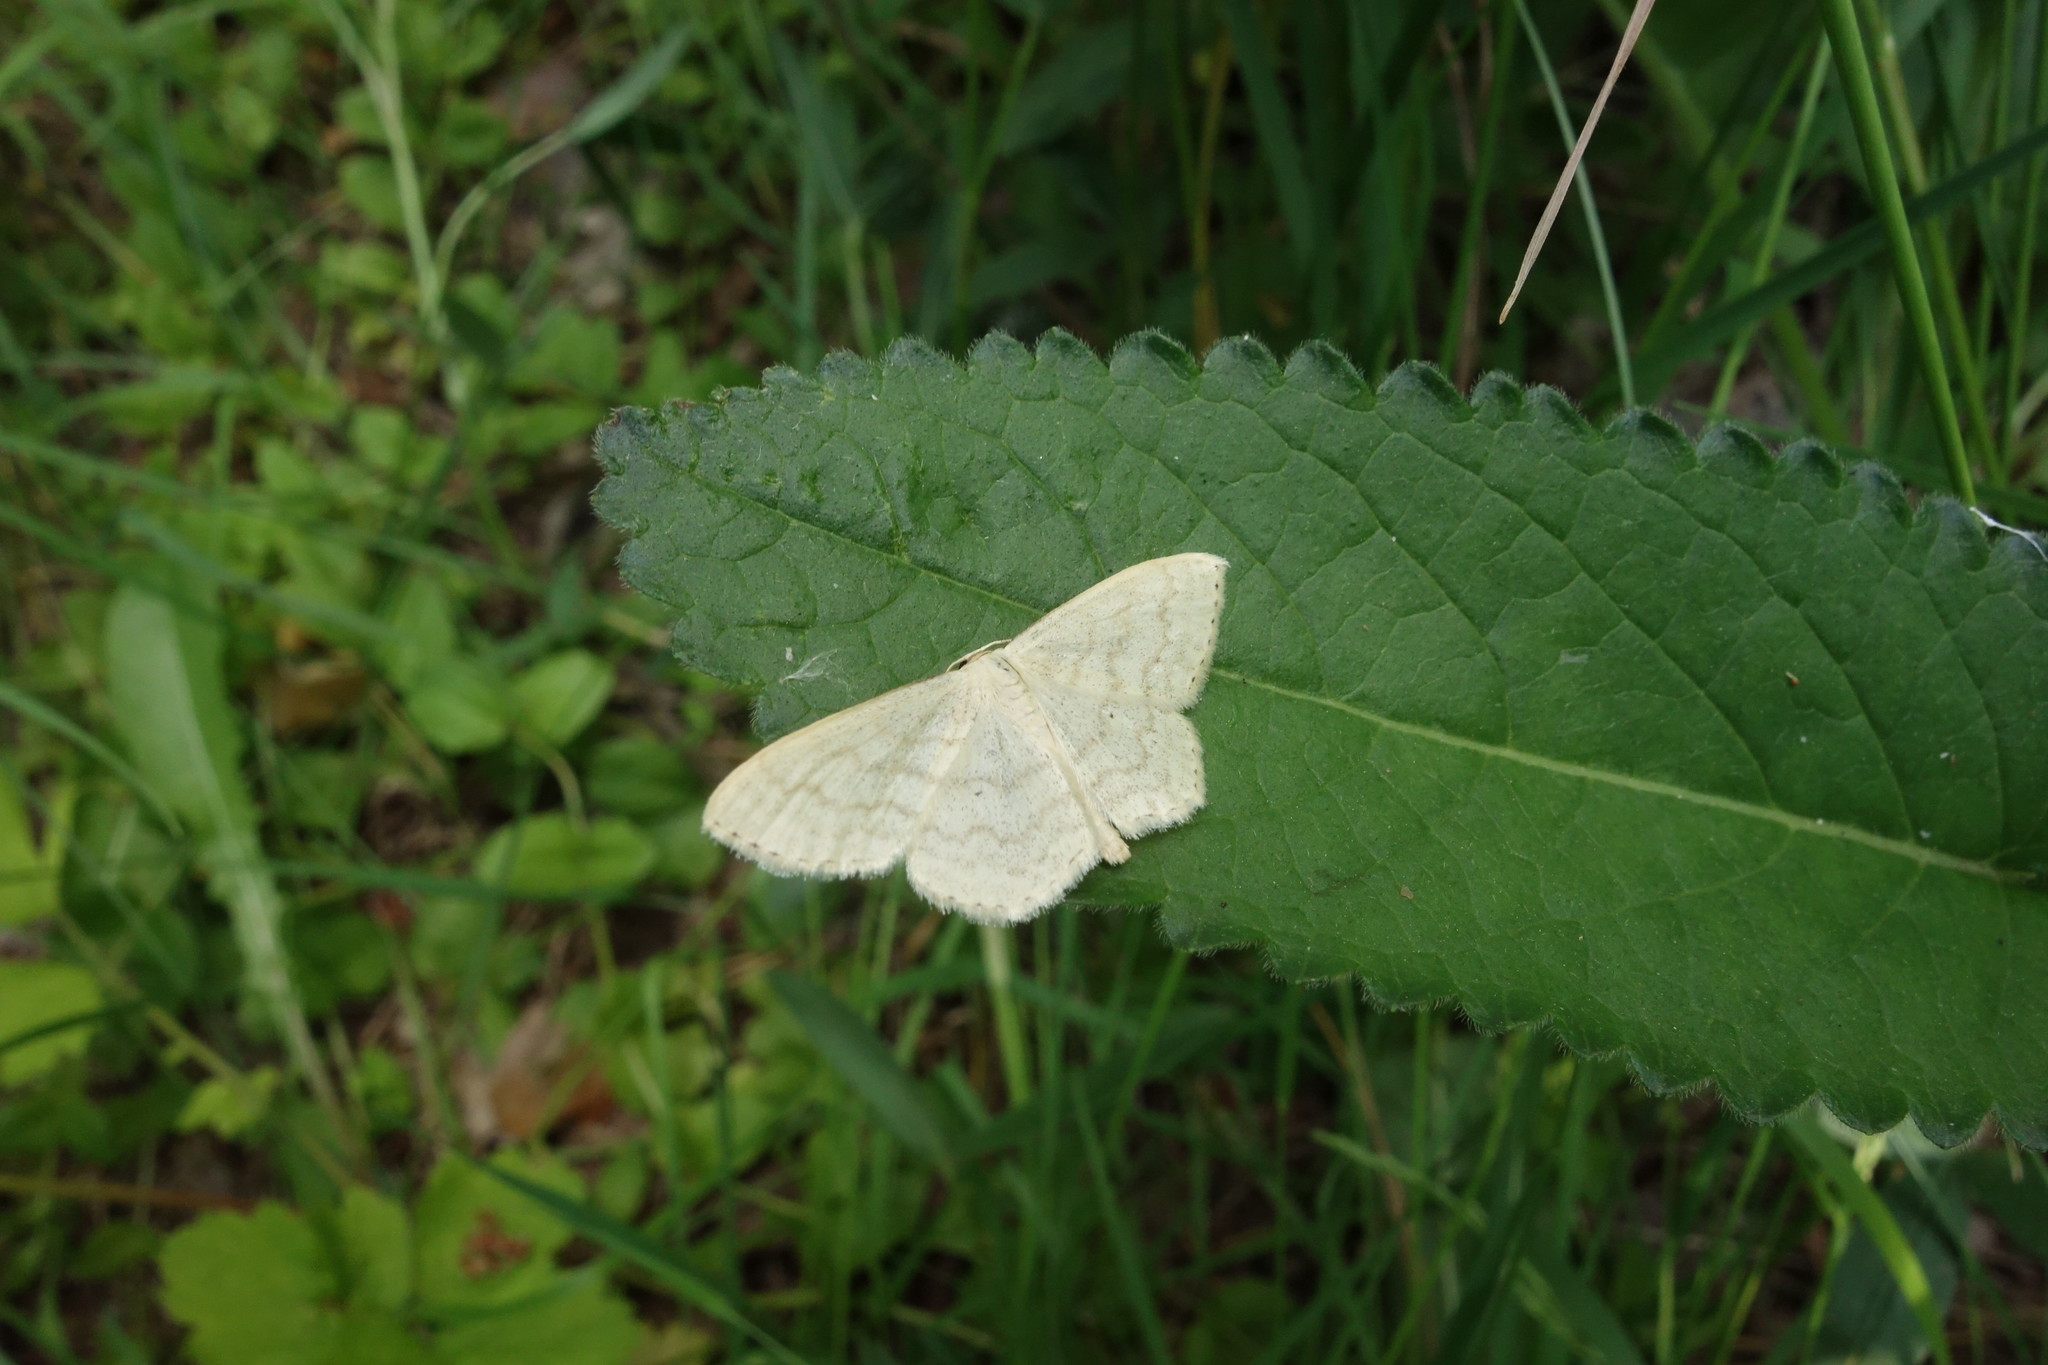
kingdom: Animalia
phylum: Arthropoda
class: Insecta
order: Lepidoptera
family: Geometridae
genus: Scopula
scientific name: Scopula floslactata
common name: Cream wave
